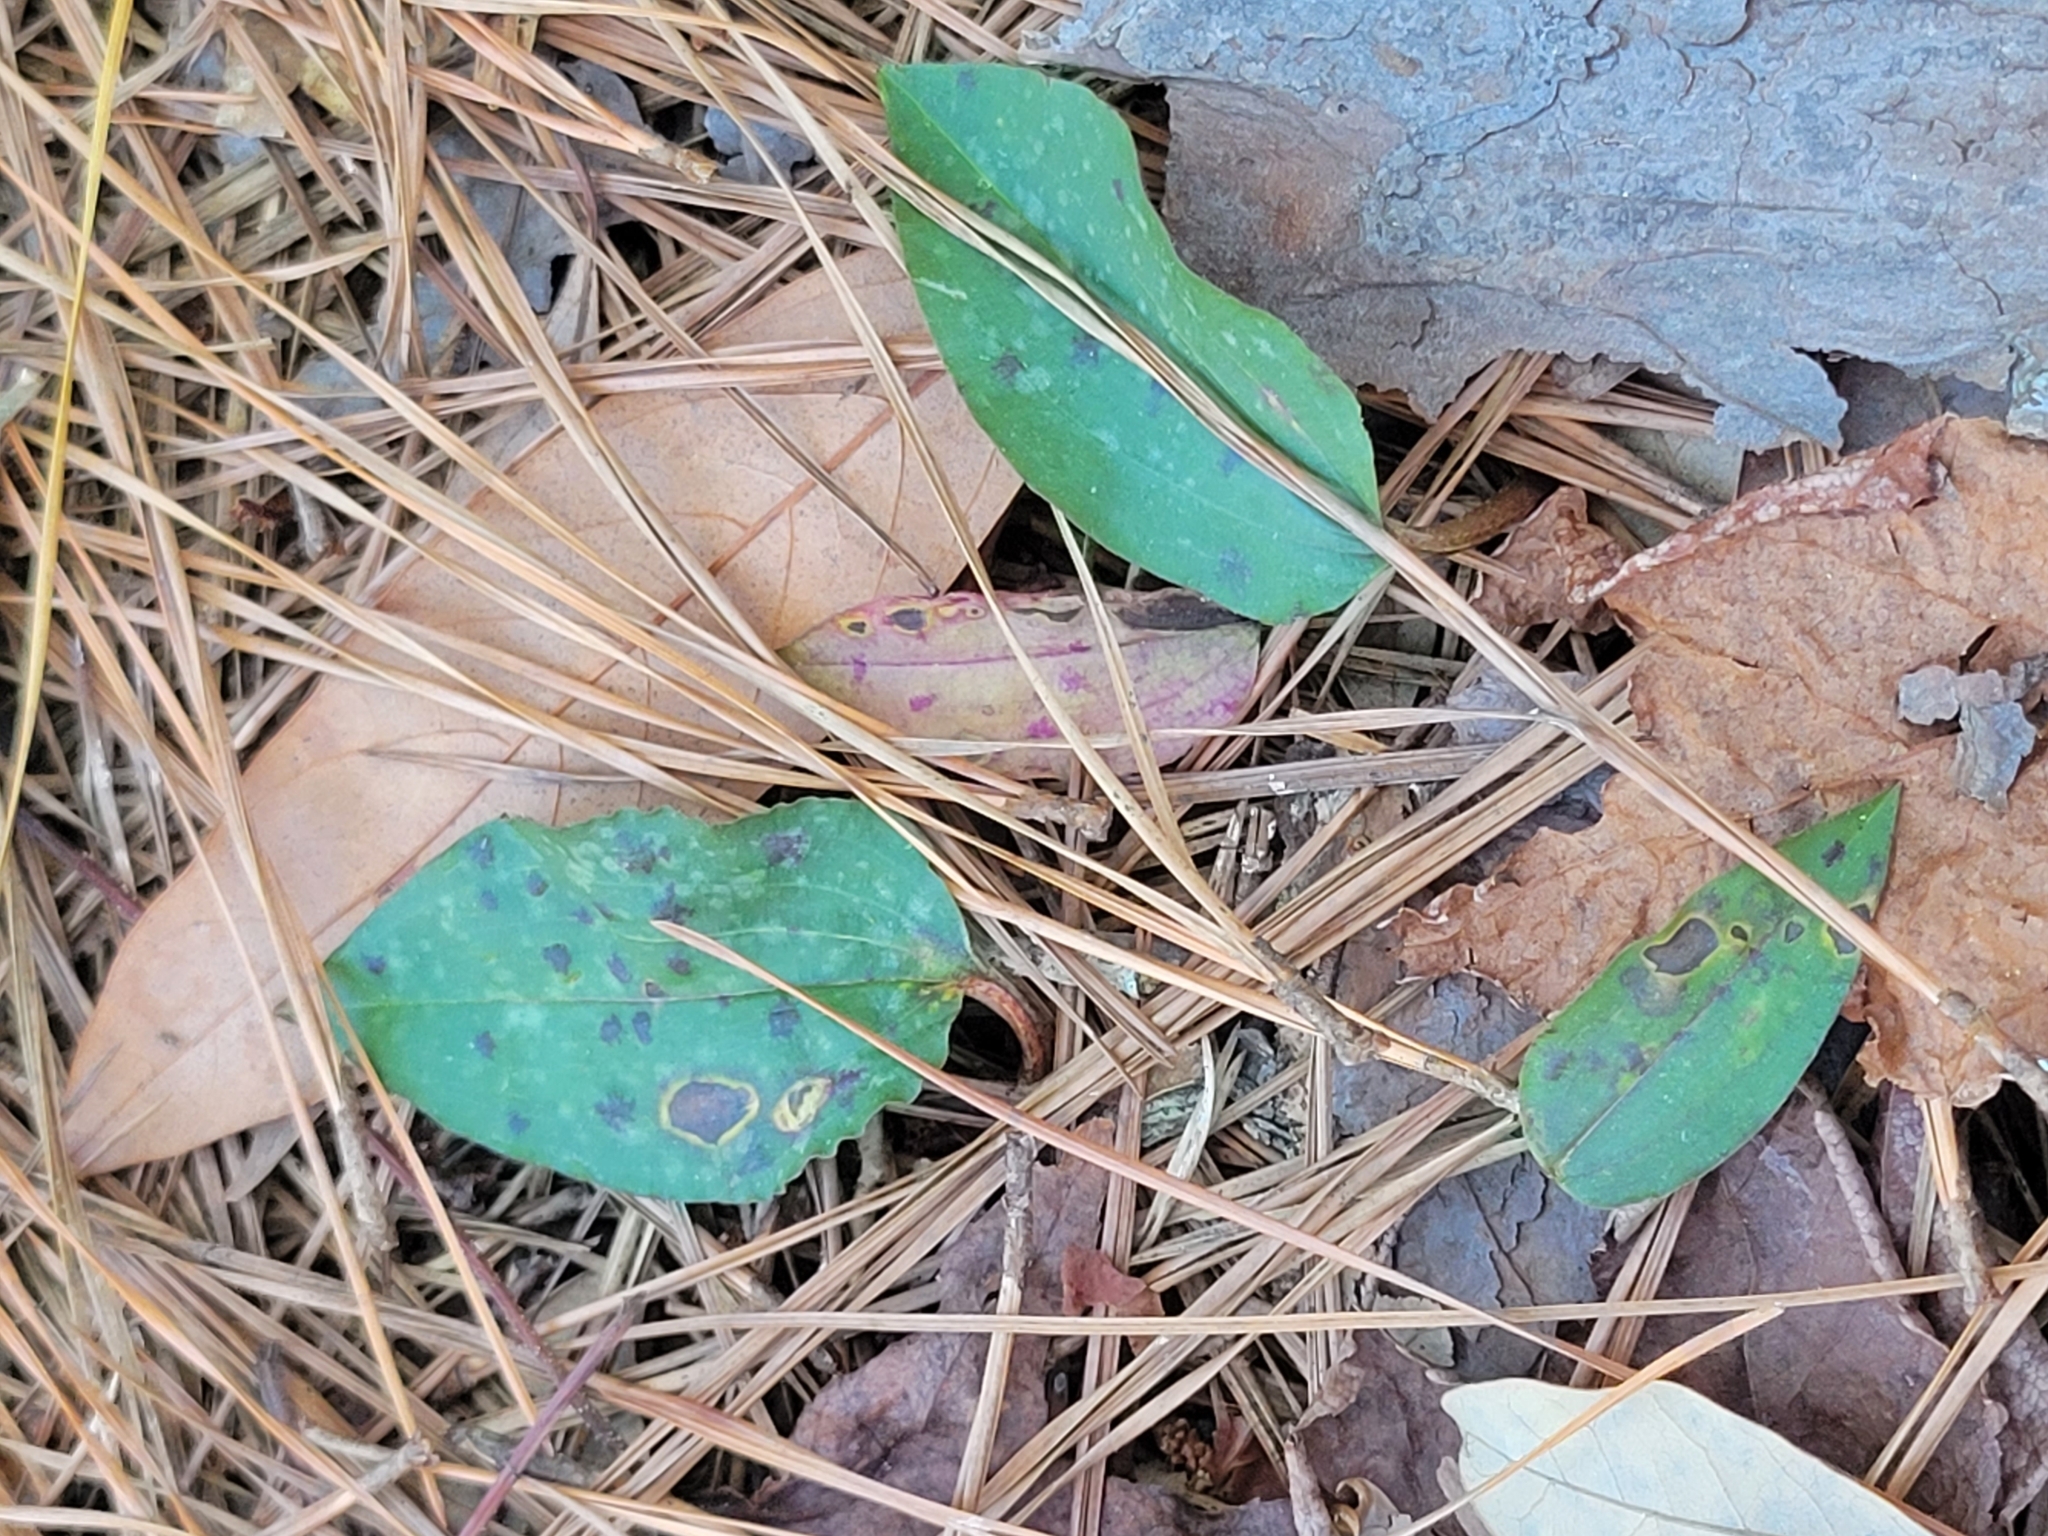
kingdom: Plantae
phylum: Tracheophyta
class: Liliopsida
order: Asparagales
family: Orchidaceae
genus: Tipularia
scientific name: Tipularia discolor
